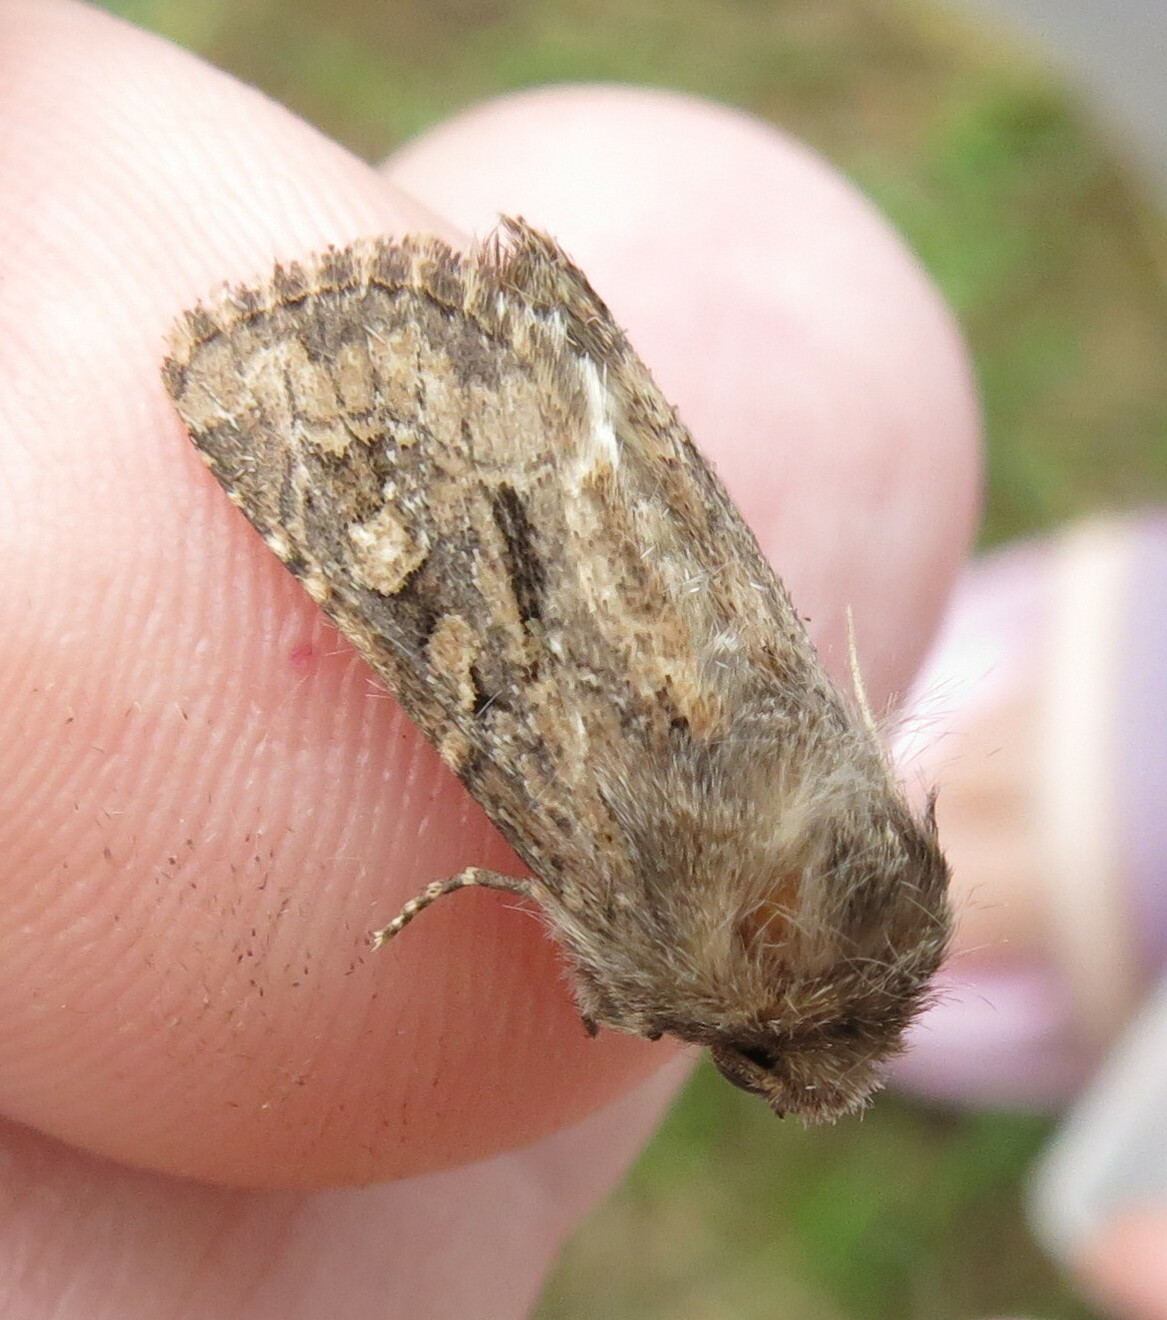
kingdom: Animalia
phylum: Arthropoda
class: Insecta
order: Lepidoptera
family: Noctuidae
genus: Luperina
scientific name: Luperina testacea
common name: Flounced rustic
